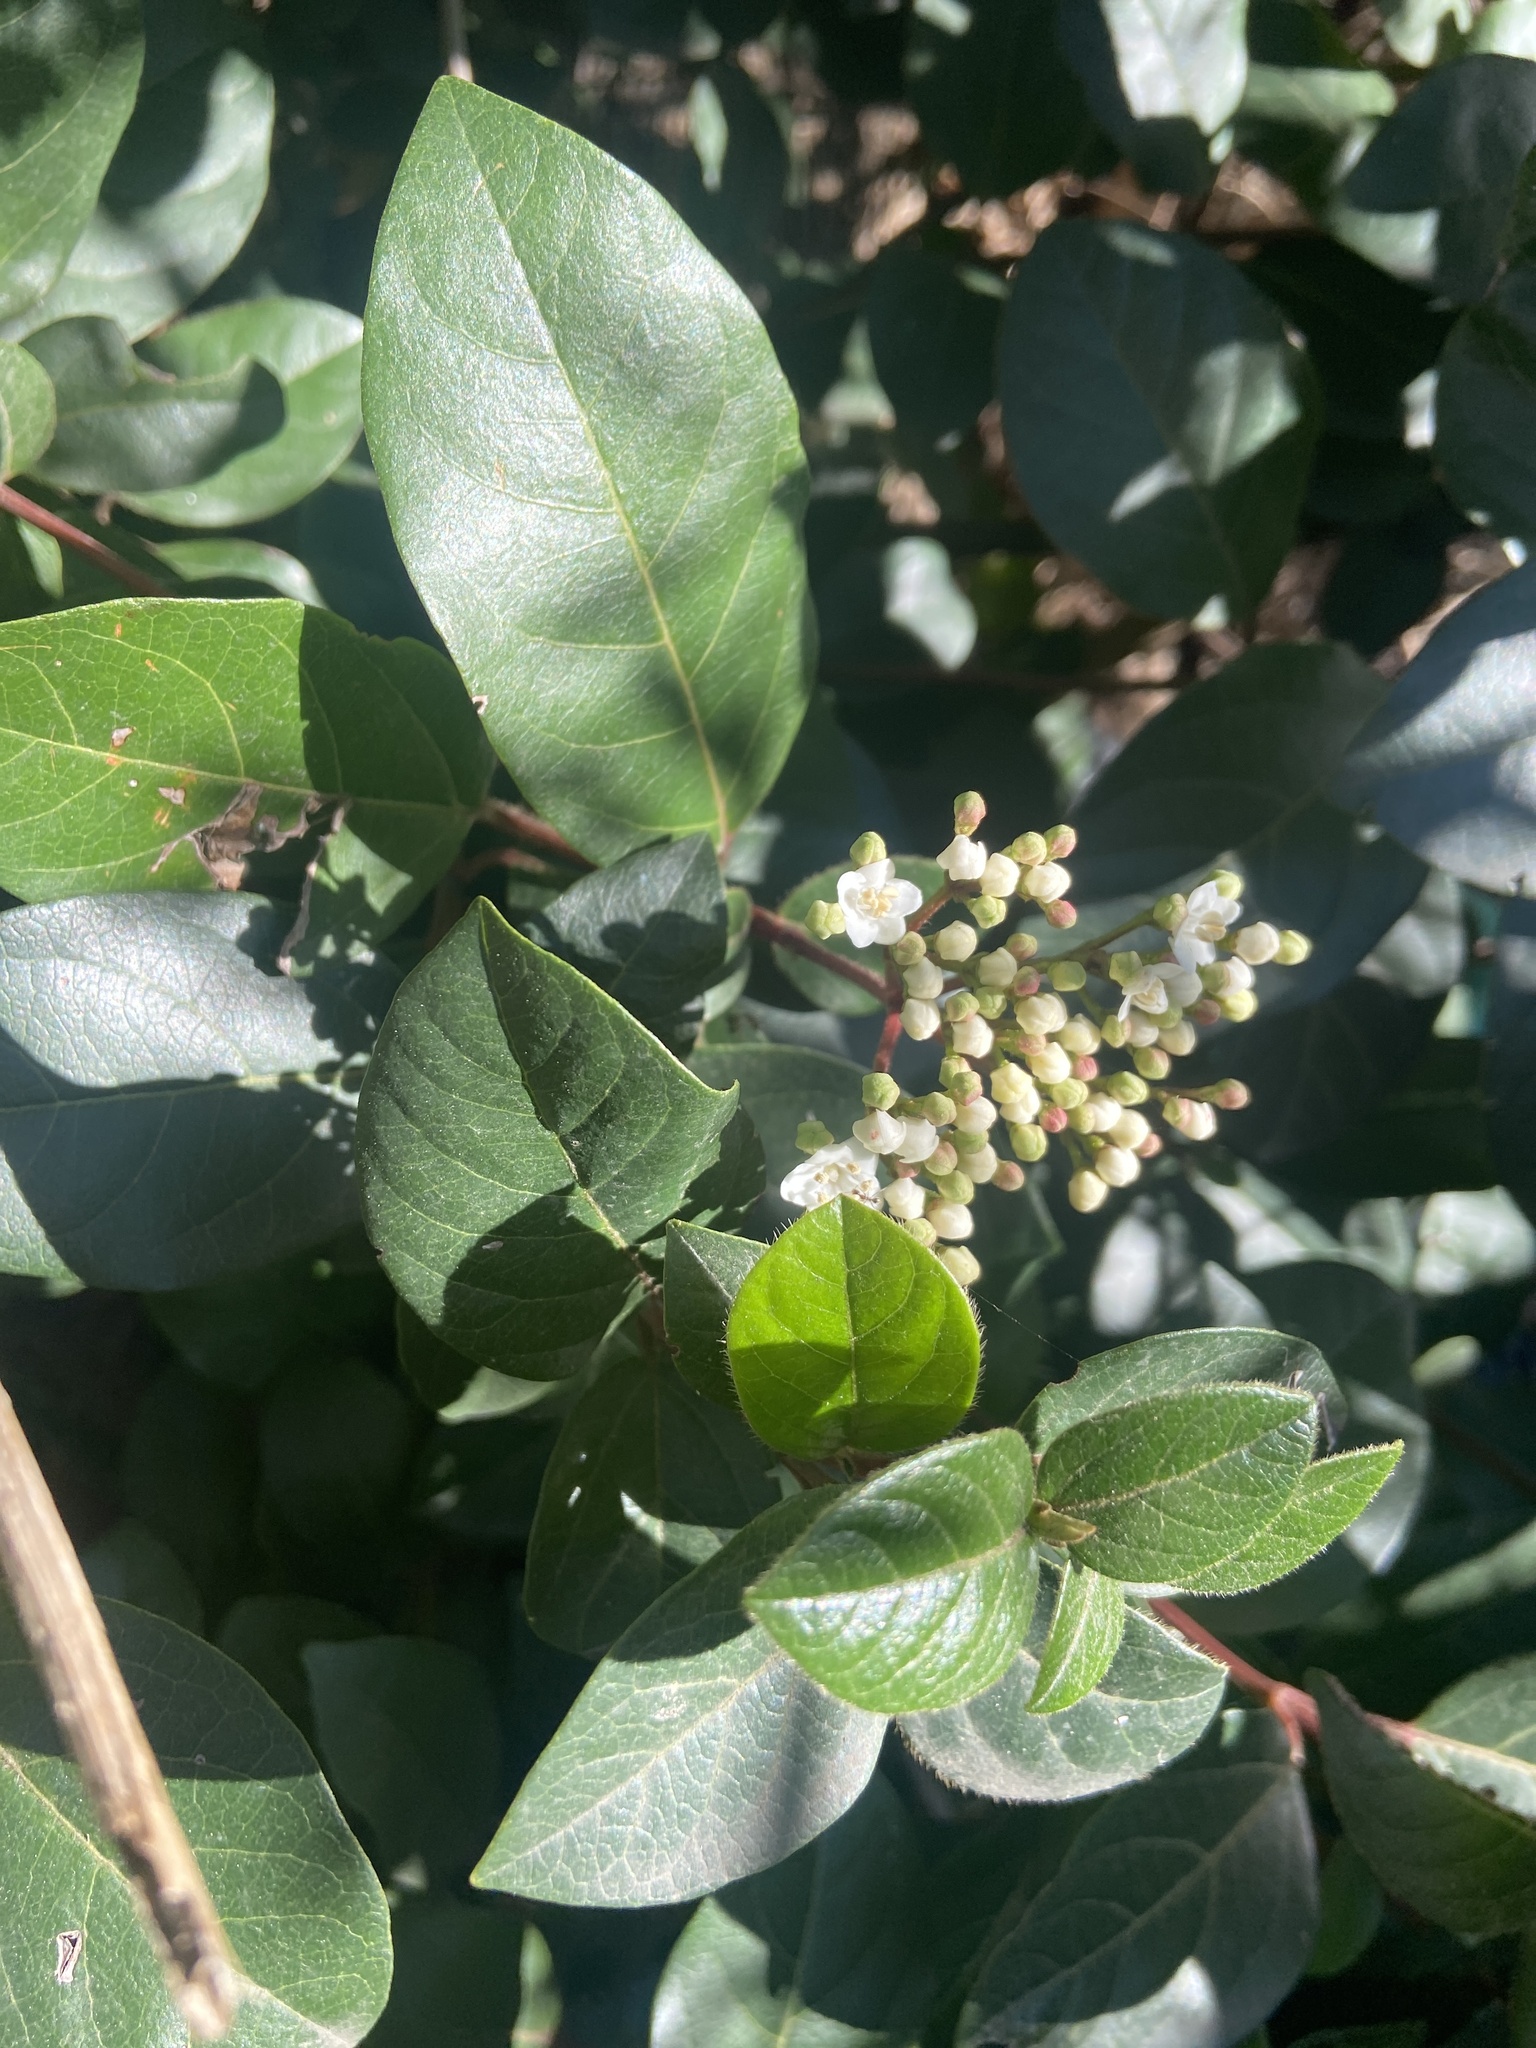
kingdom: Plantae
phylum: Tracheophyta
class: Magnoliopsida
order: Dipsacales
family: Viburnaceae
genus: Viburnum
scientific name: Viburnum tinus
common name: Laurustinus
